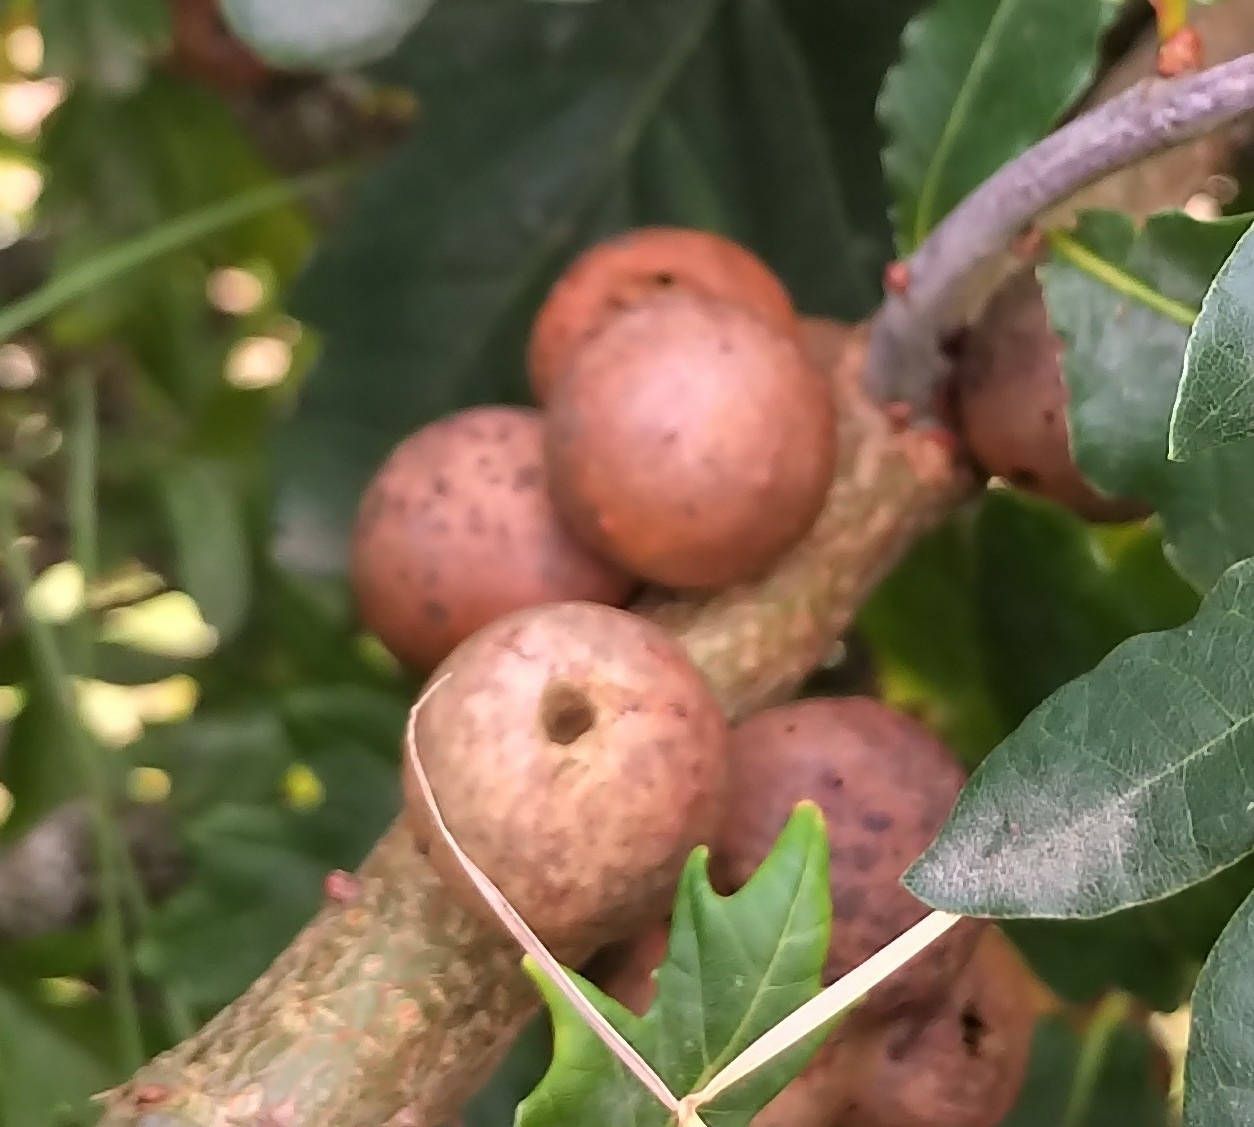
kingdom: Animalia
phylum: Arthropoda
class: Insecta
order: Hymenoptera
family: Cynipidae
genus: Andricus
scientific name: Andricus kollari
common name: Marble gall
